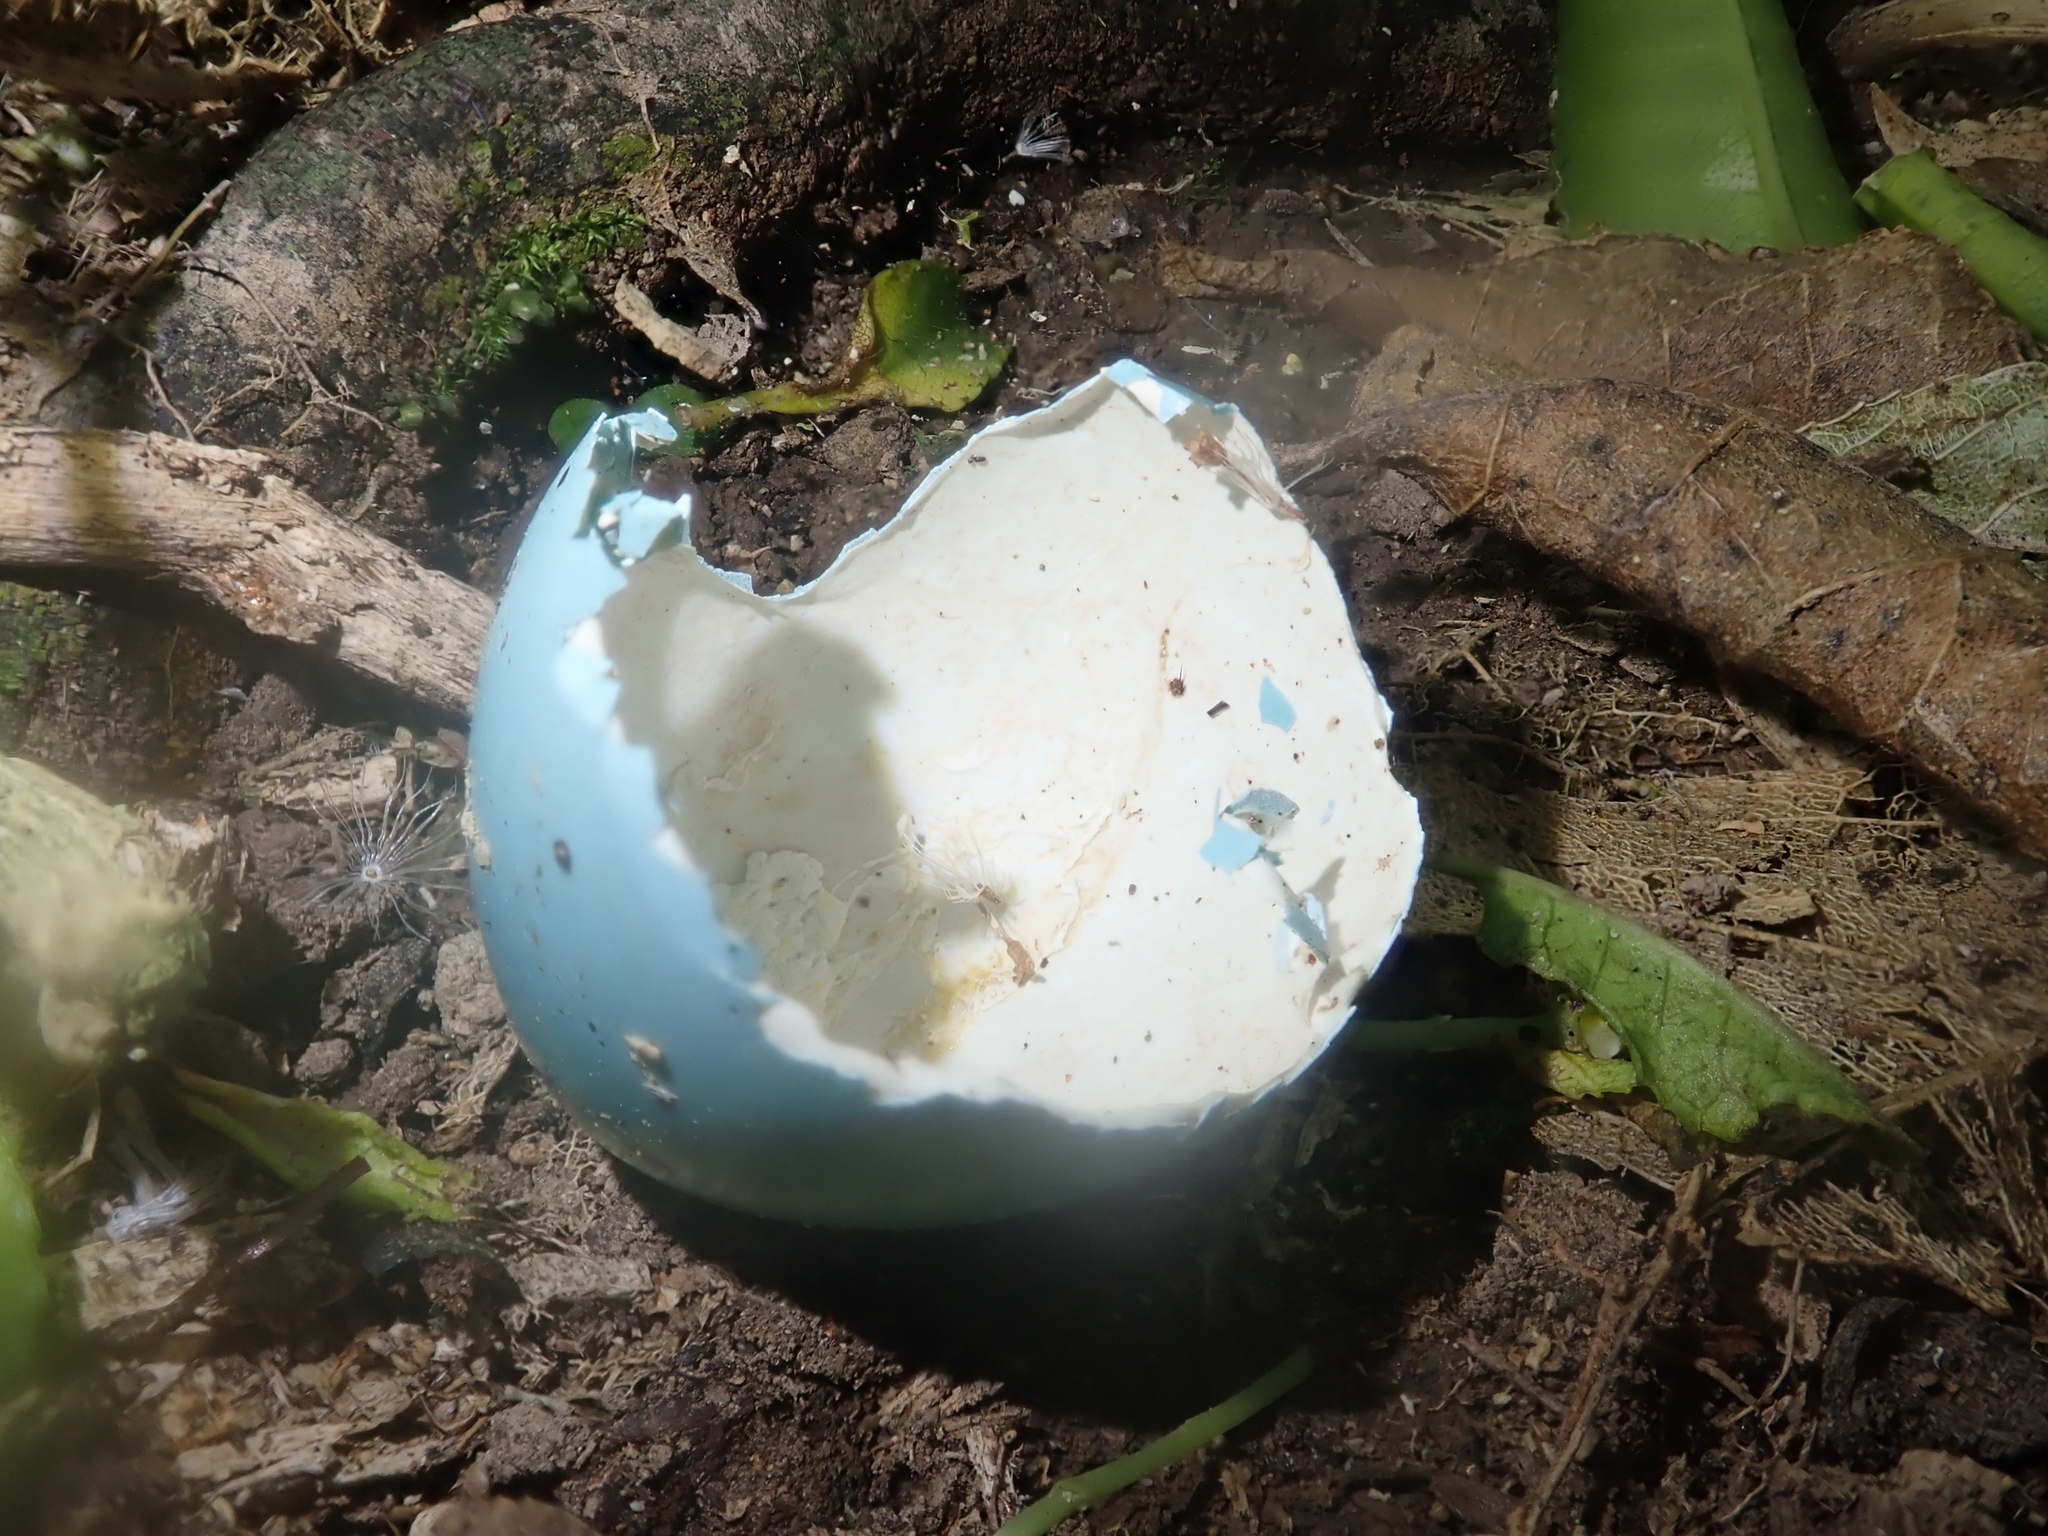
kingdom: Animalia
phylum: Chordata
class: Aves
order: Passeriformes
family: Turdidae
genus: Turdus
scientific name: Turdus philomelos
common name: Song thrush
